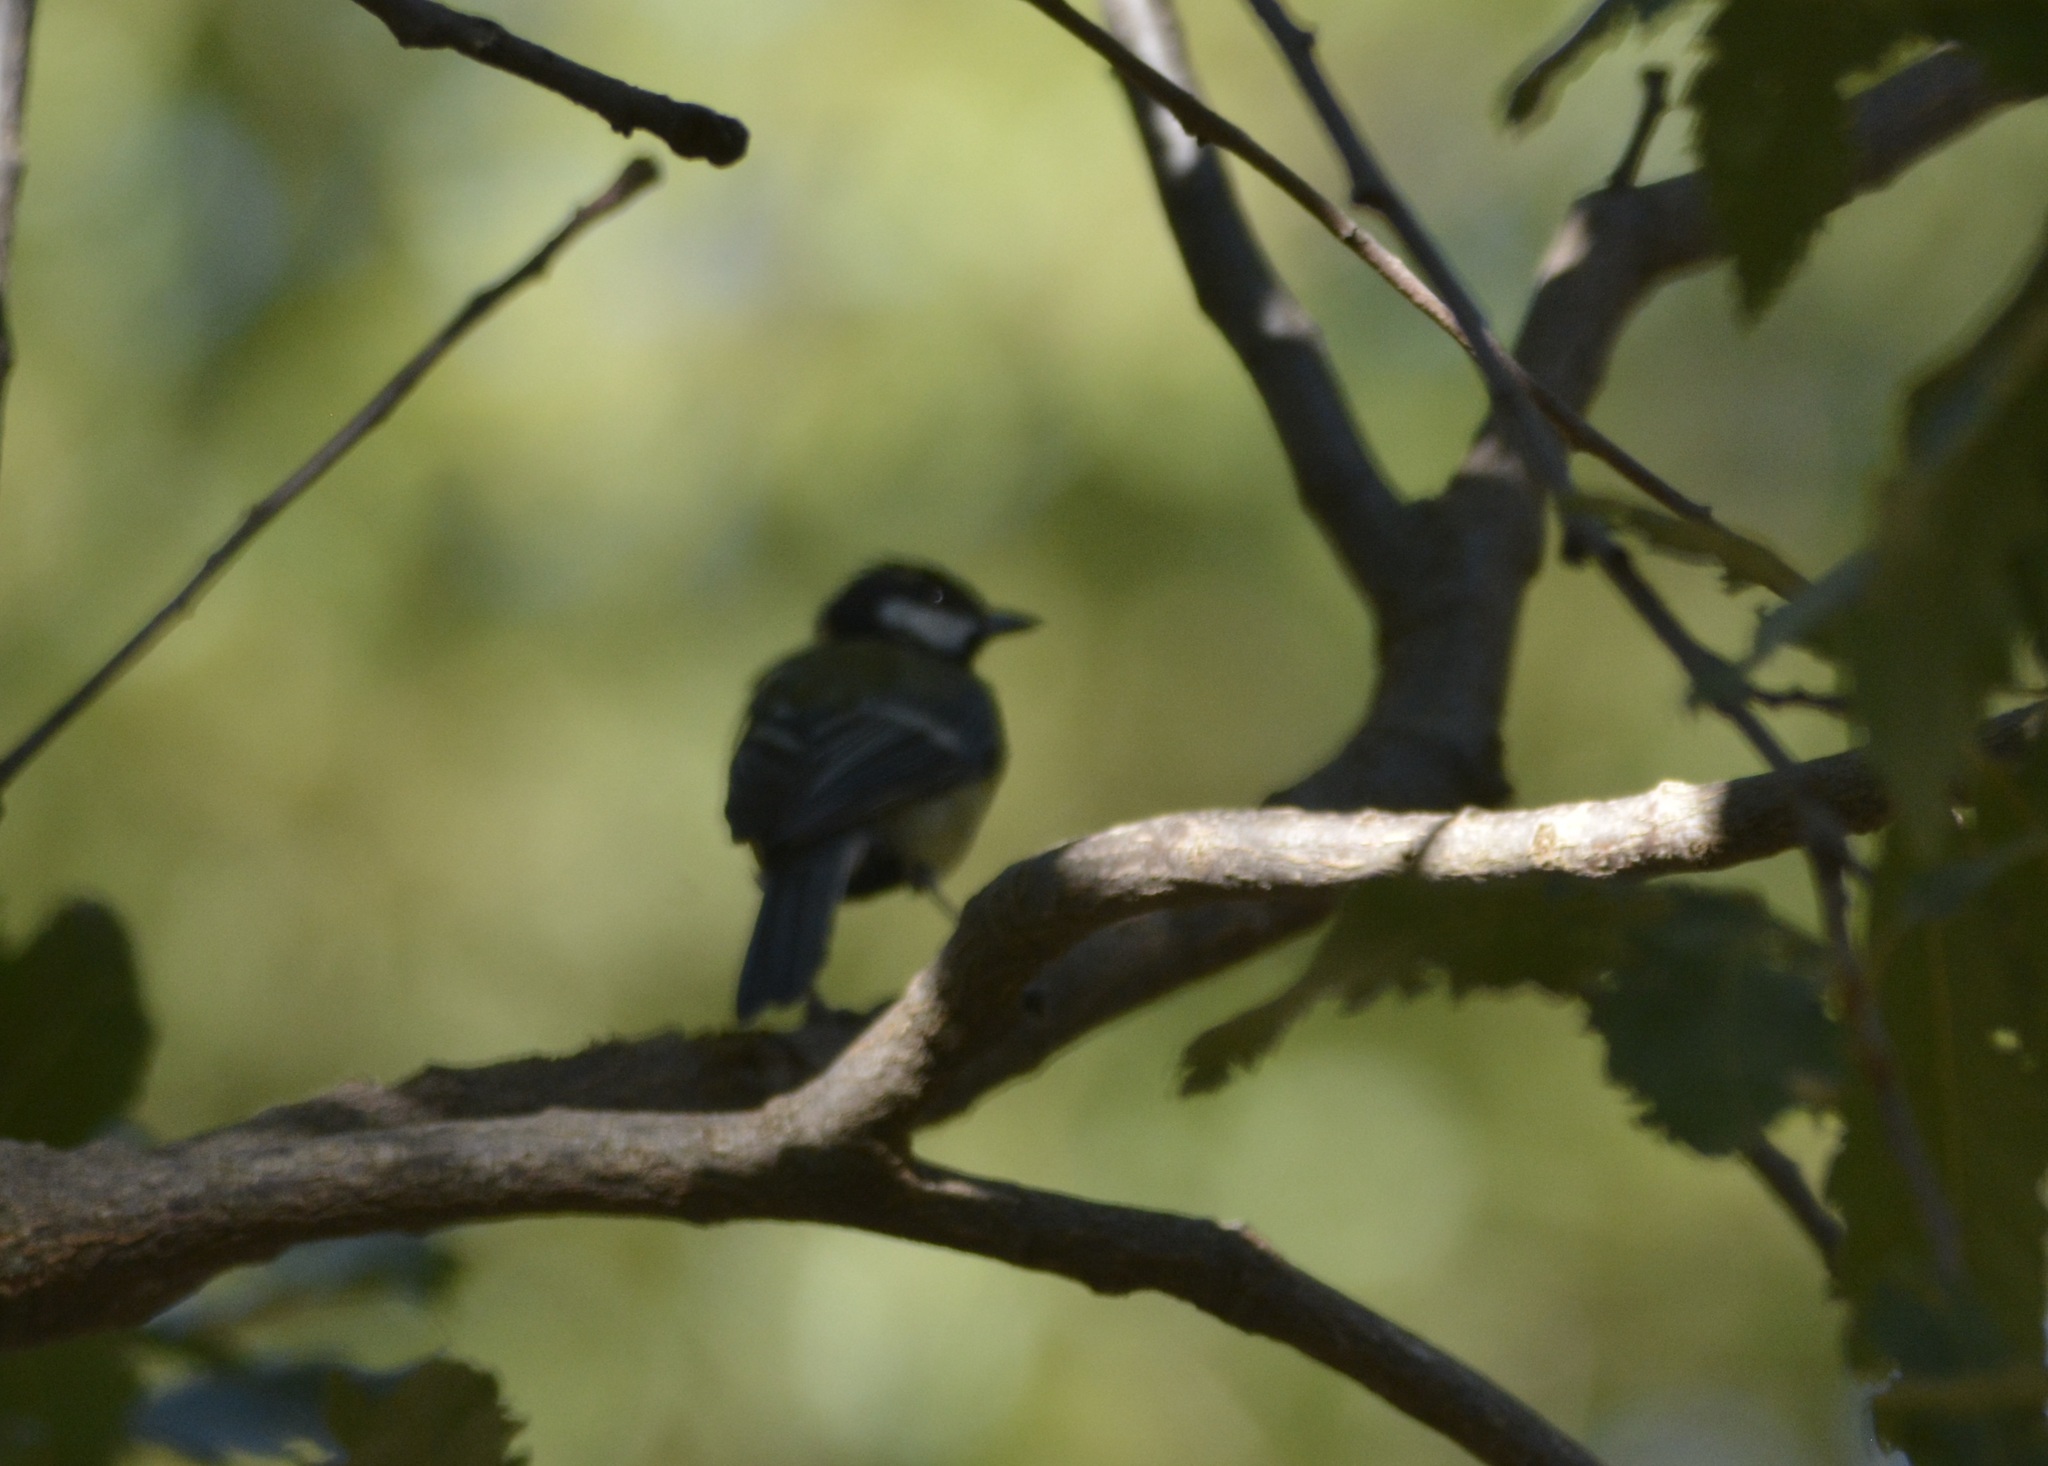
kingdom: Animalia
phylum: Chordata
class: Aves
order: Passeriformes
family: Paridae
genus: Parus
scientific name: Parus major
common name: Great tit
